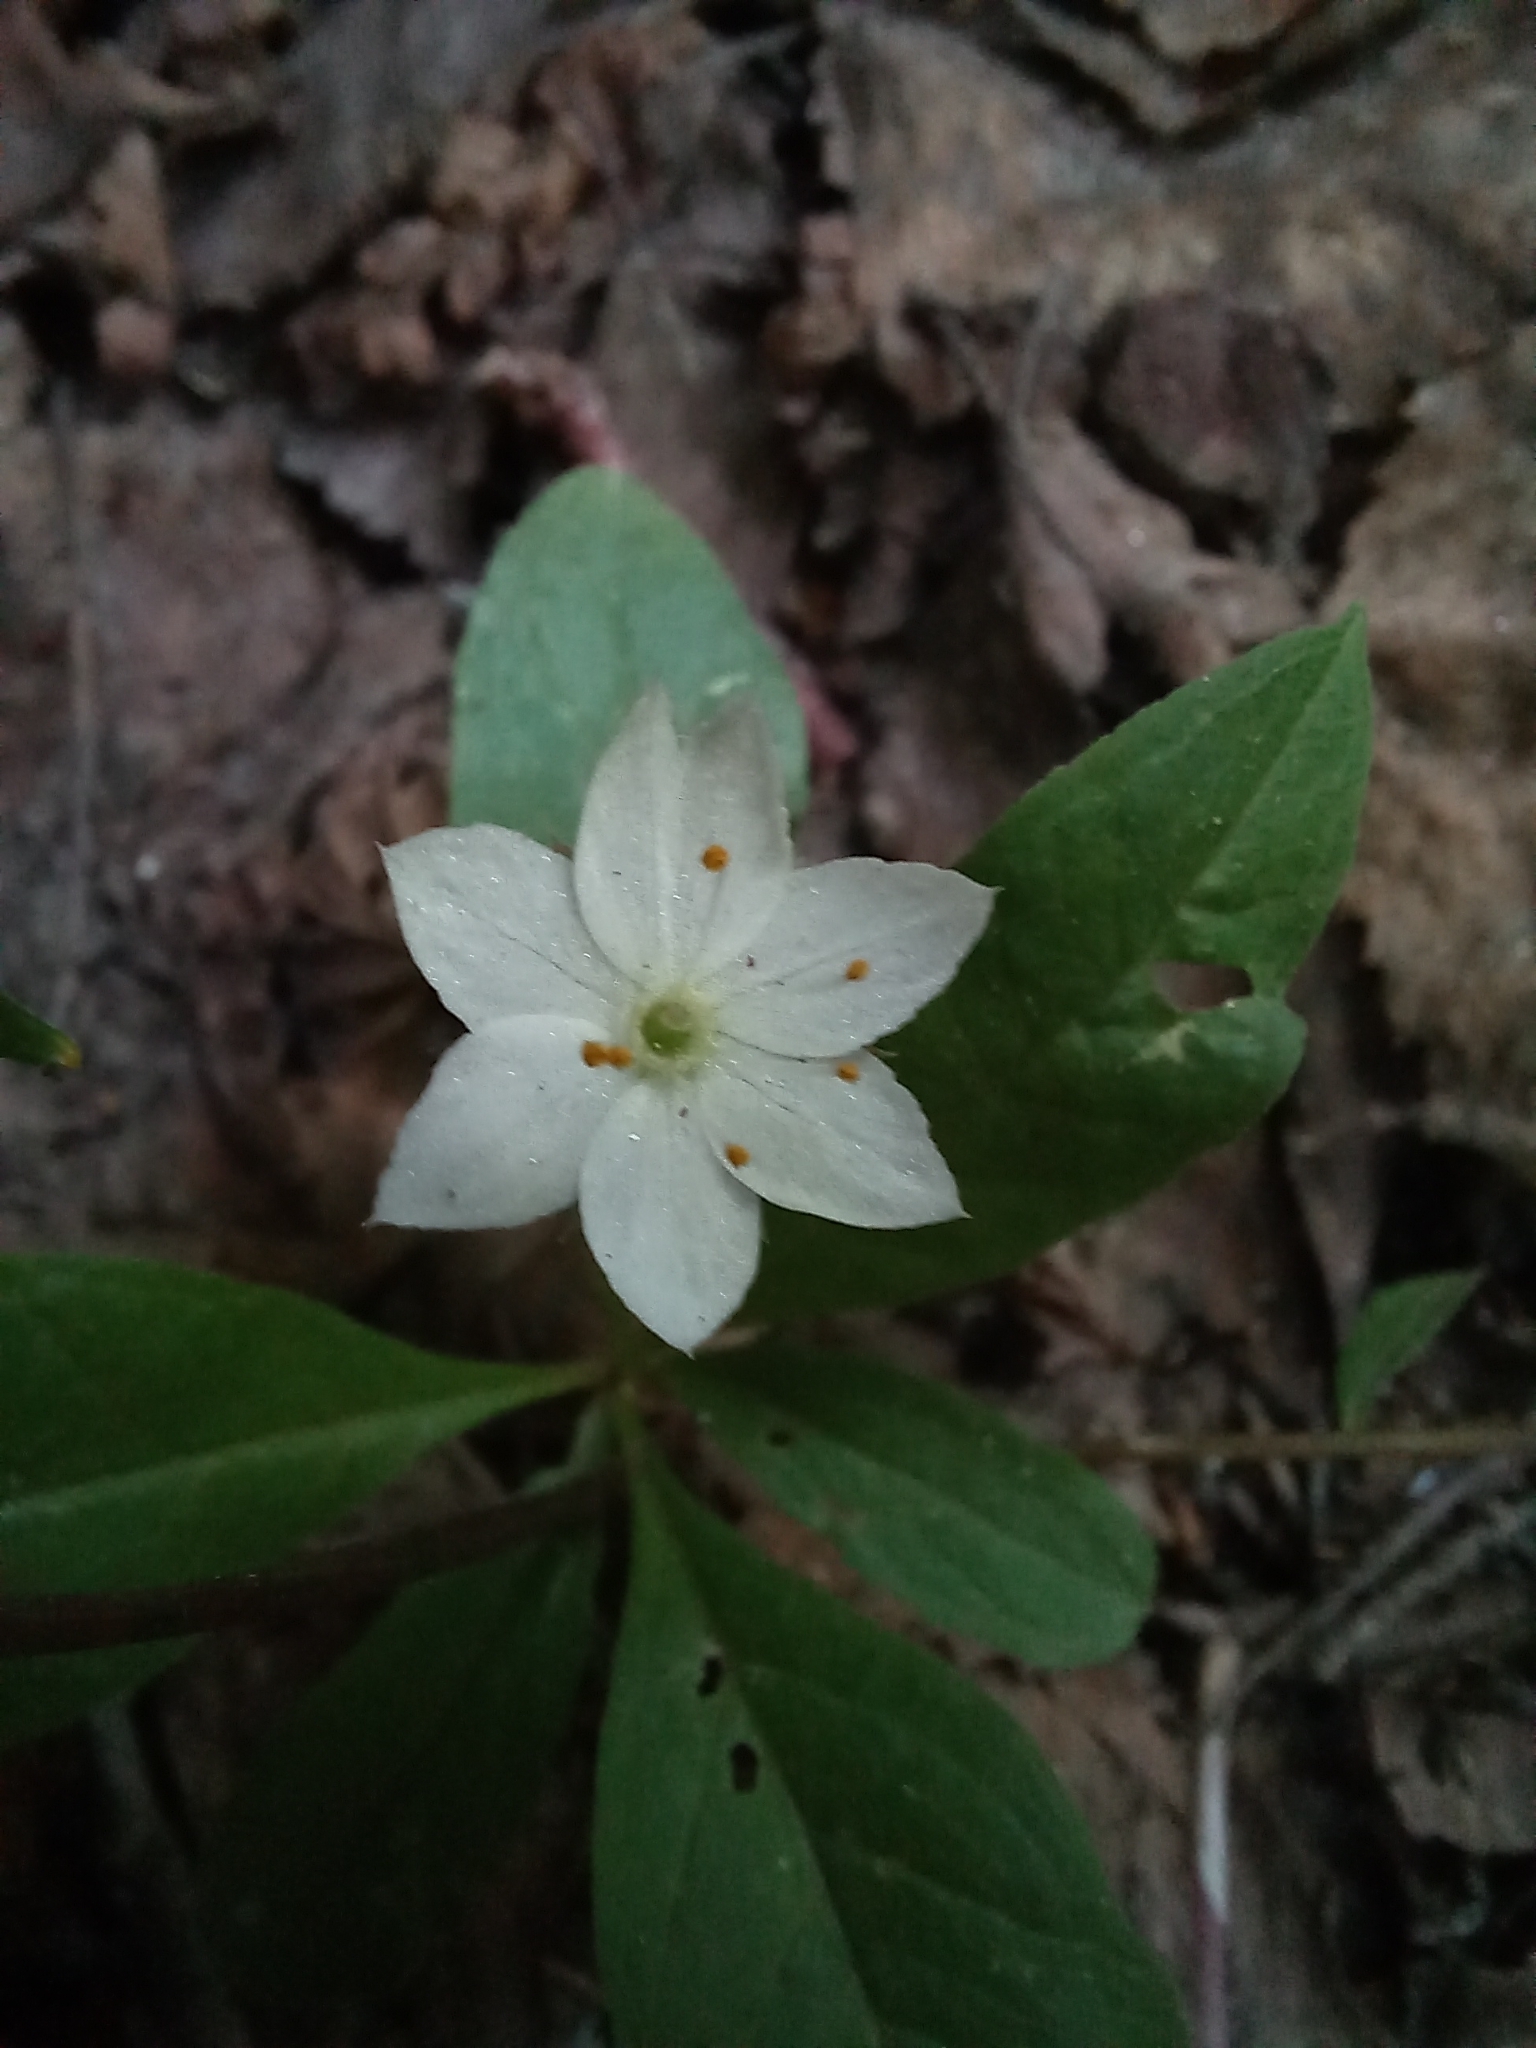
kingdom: Plantae
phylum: Tracheophyta
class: Magnoliopsida
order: Ericales
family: Primulaceae
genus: Lysimachia
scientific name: Lysimachia europaea
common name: Arctic starflower
